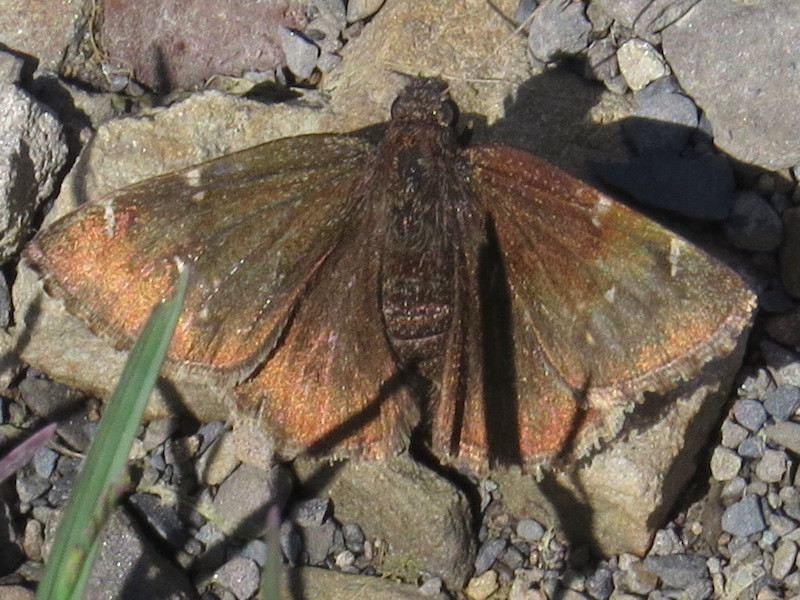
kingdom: Animalia
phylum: Arthropoda
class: Insecta
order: Lepidoptera
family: Hesperiidae
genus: Thorybes
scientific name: Thorybes pylades
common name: Northern cloudywing
